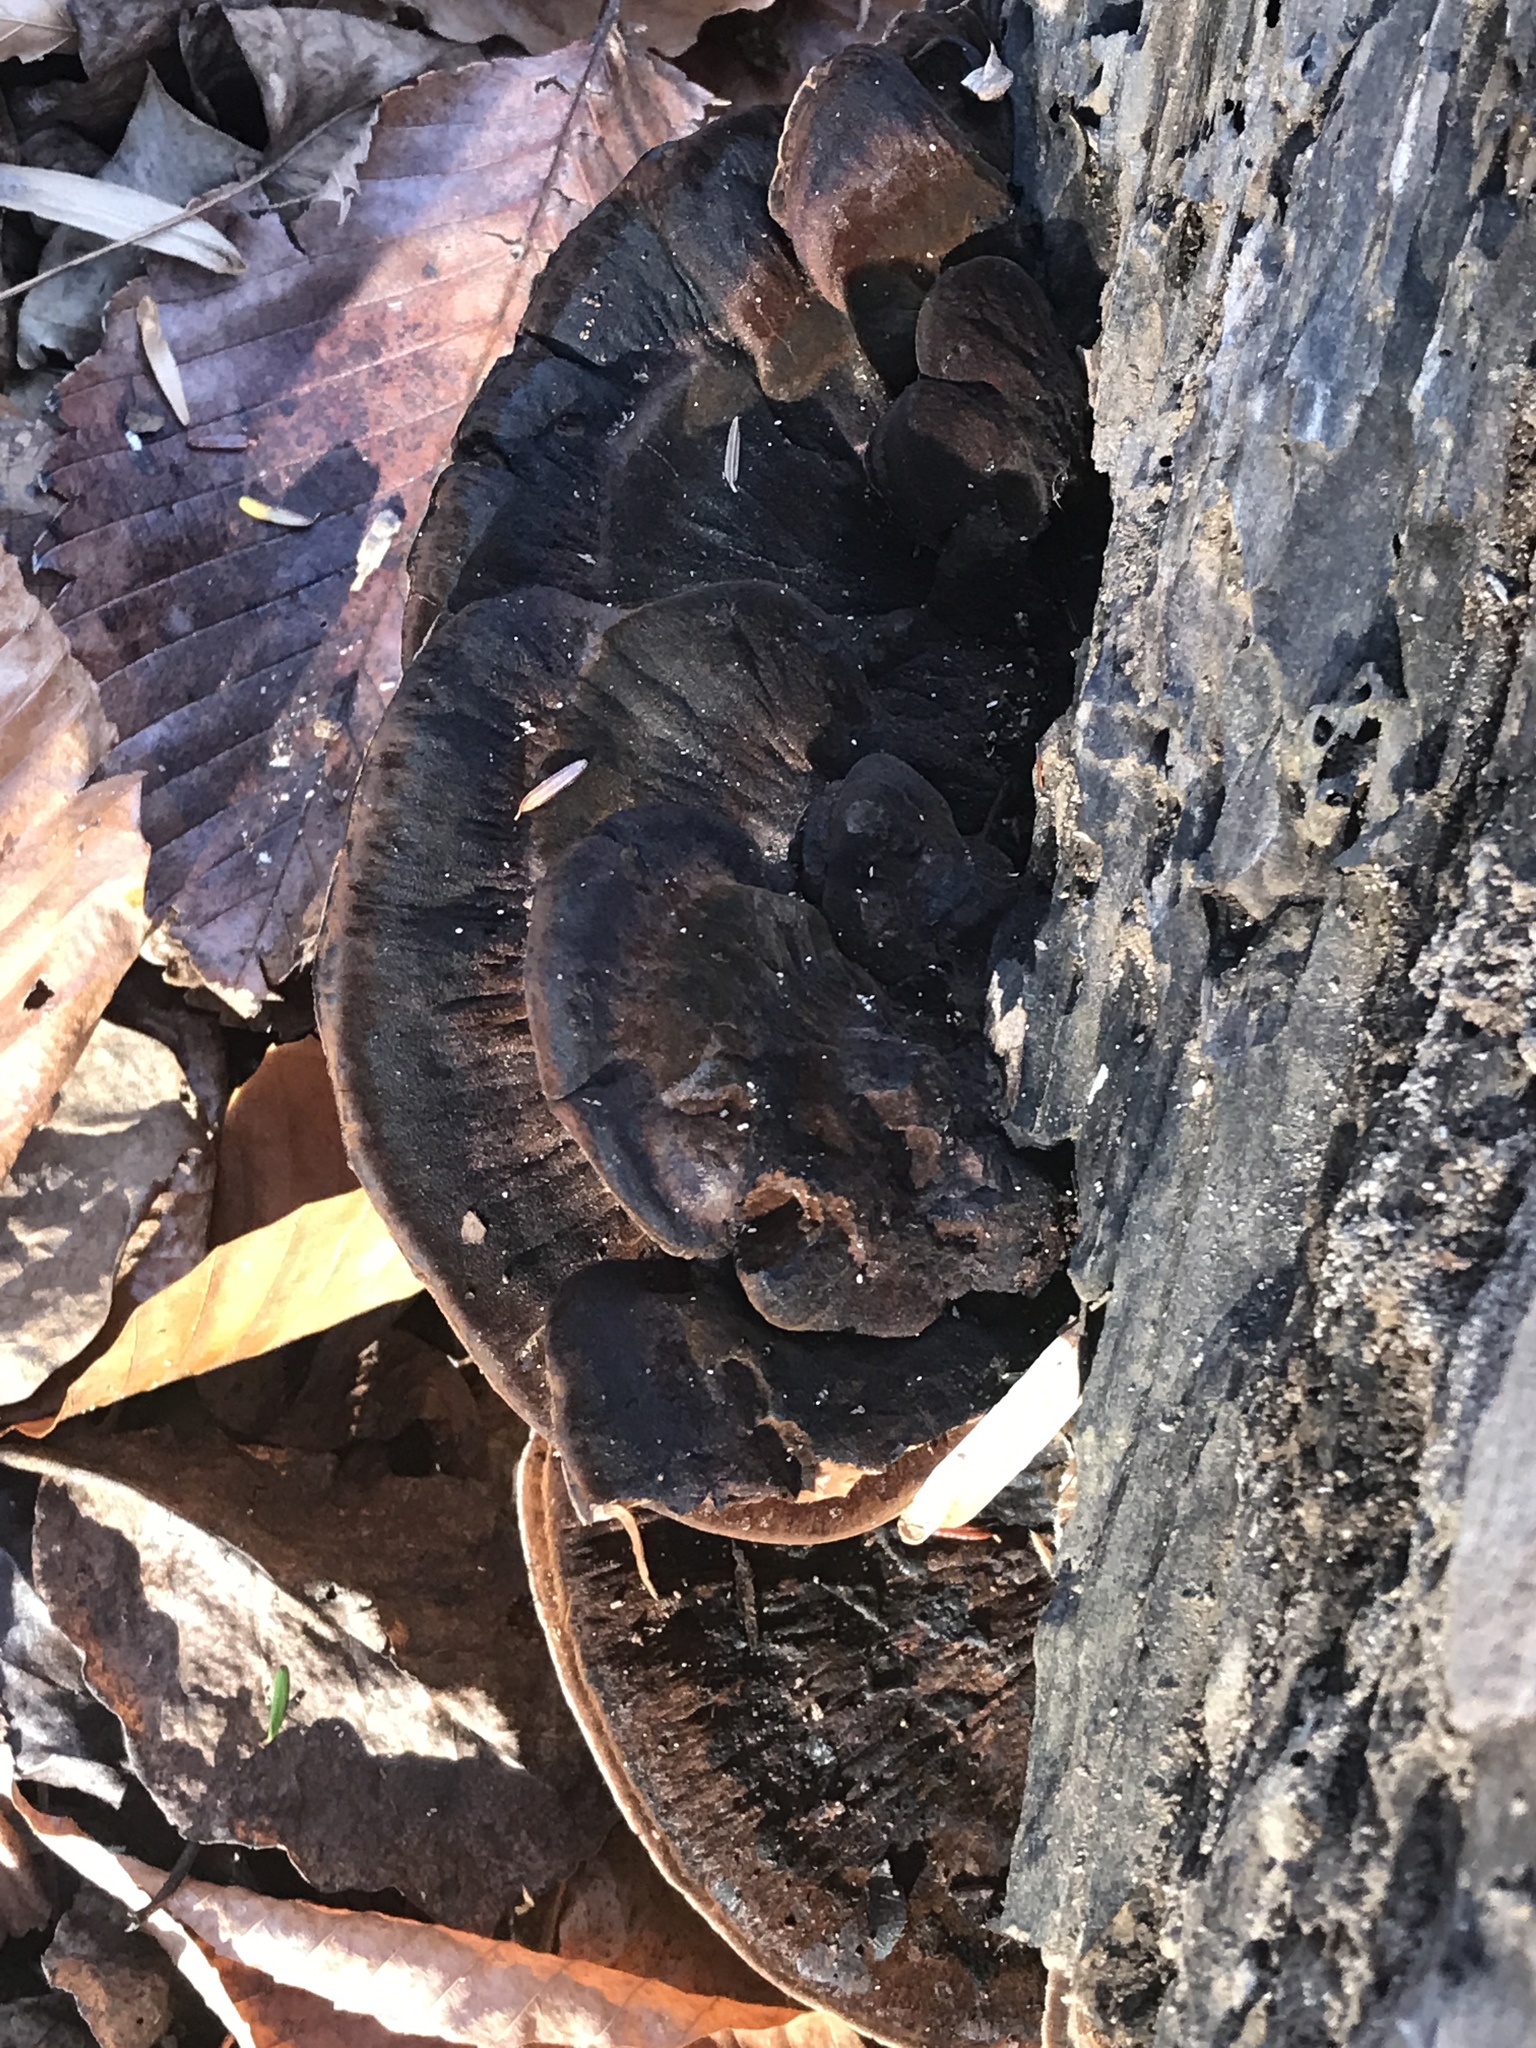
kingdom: Fungi
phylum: Basidiomycota
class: Agaricomycetes
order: Polyporales
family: Ischnodermataceae
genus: Ischnoderma
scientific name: Ischnoderma resinosum
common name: Resinous polypore
